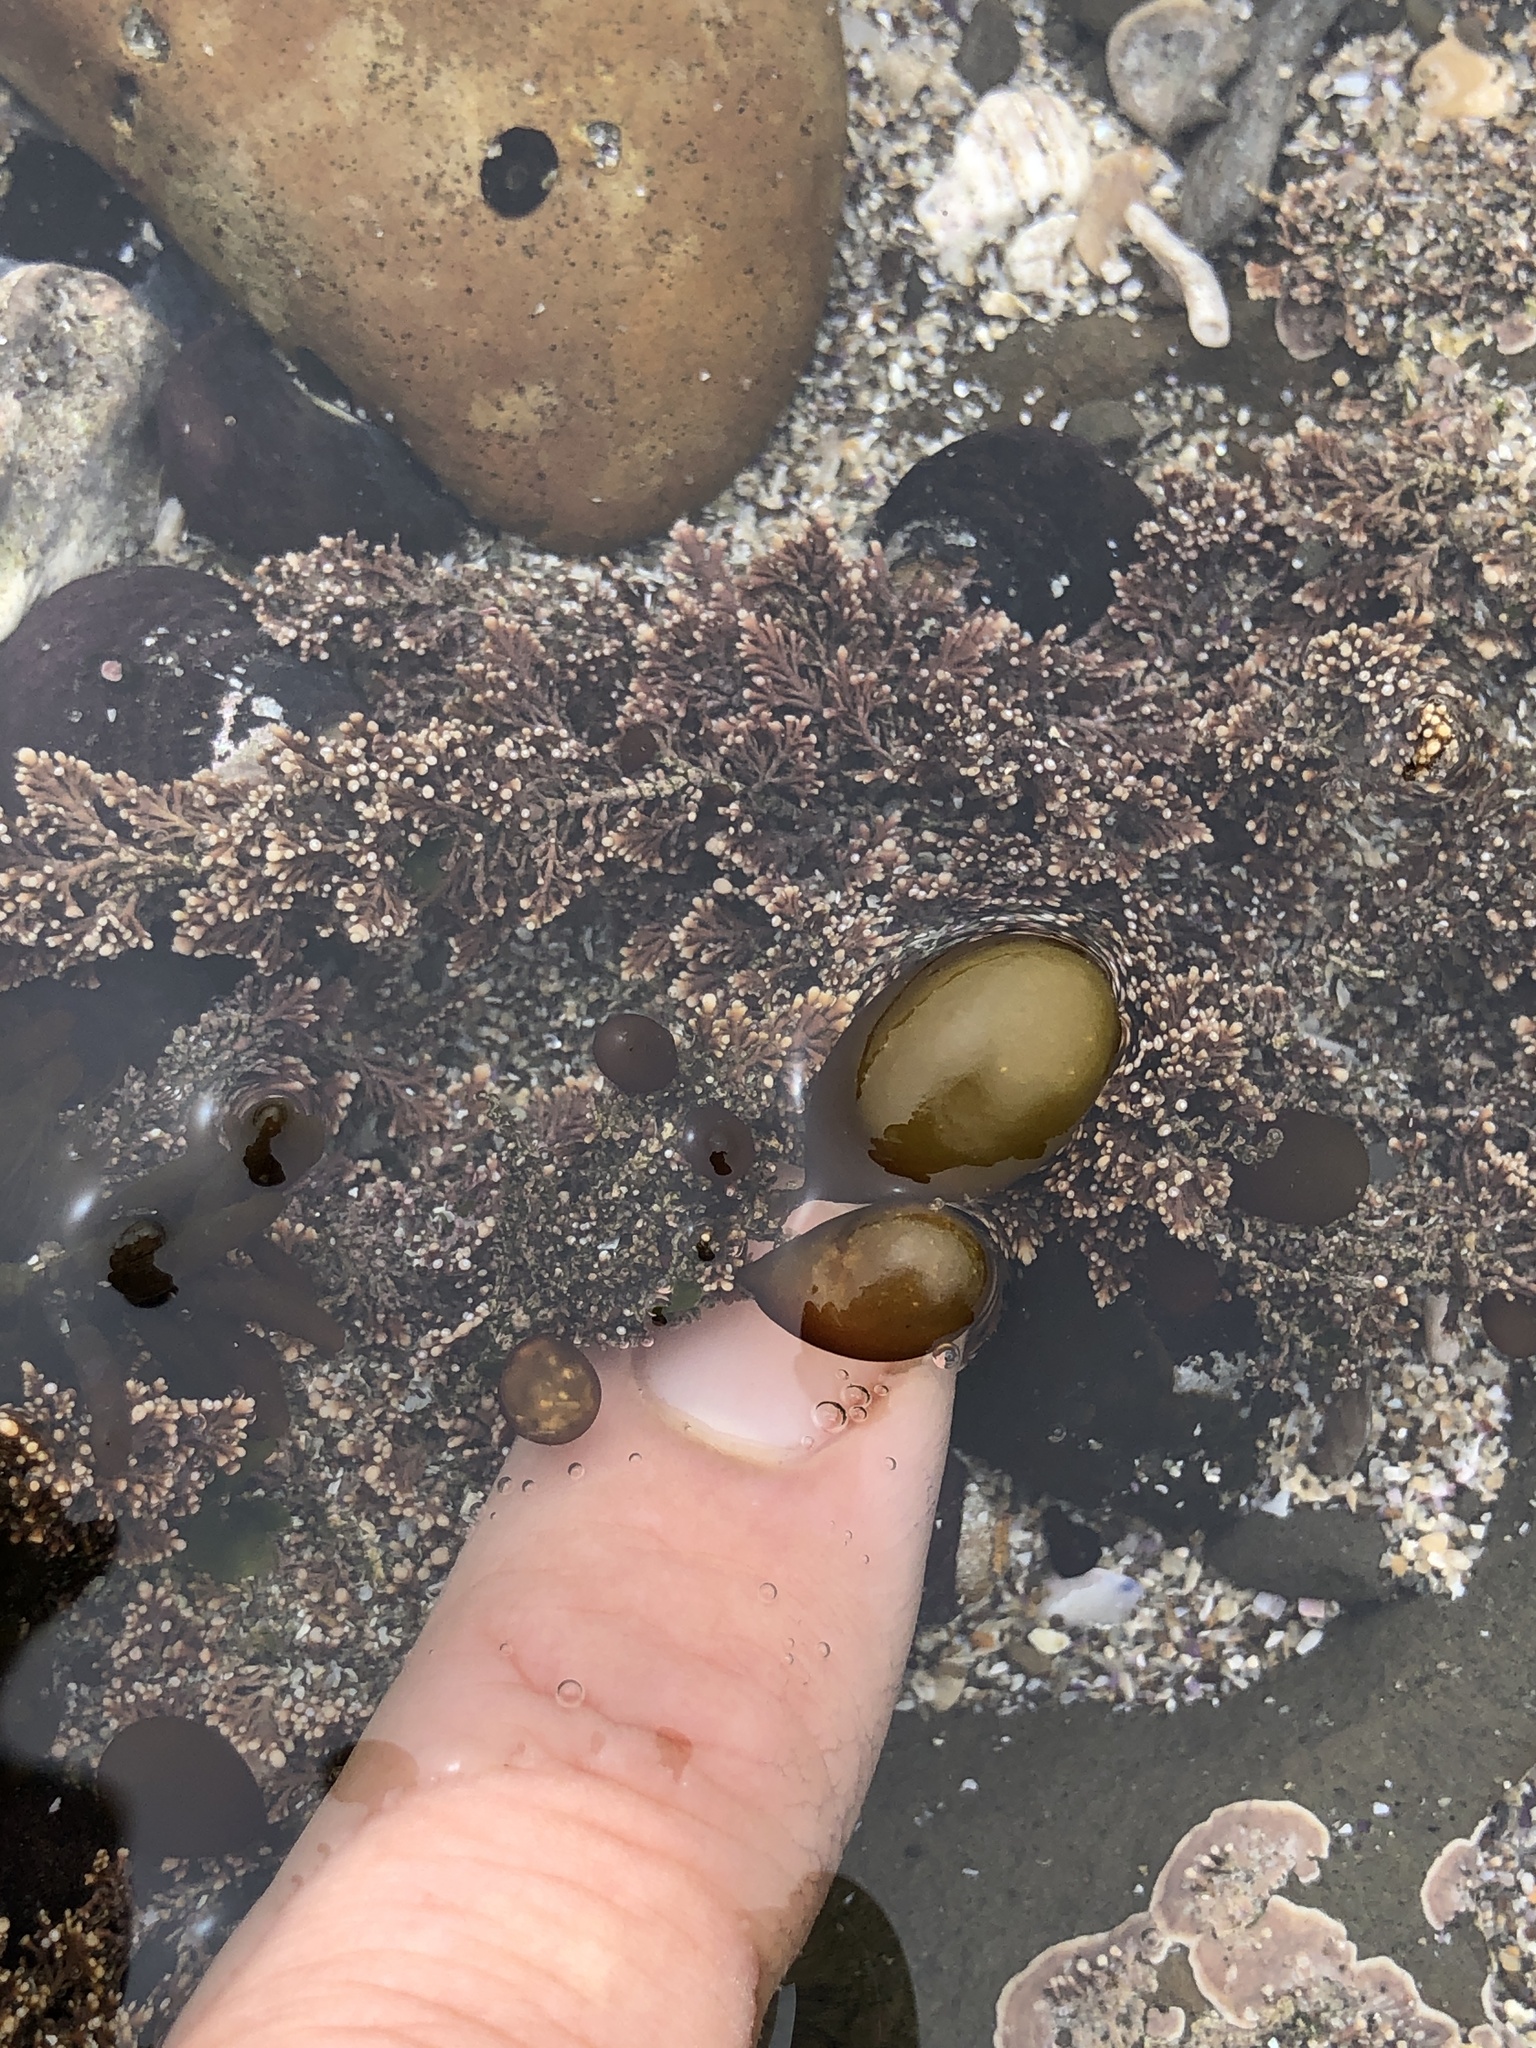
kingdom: Plantae
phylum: Rhodophyta
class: Florideophyceae
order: Palmariales
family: Palmariaceae
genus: Halosaccion
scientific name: Halosaccion glandiforme
